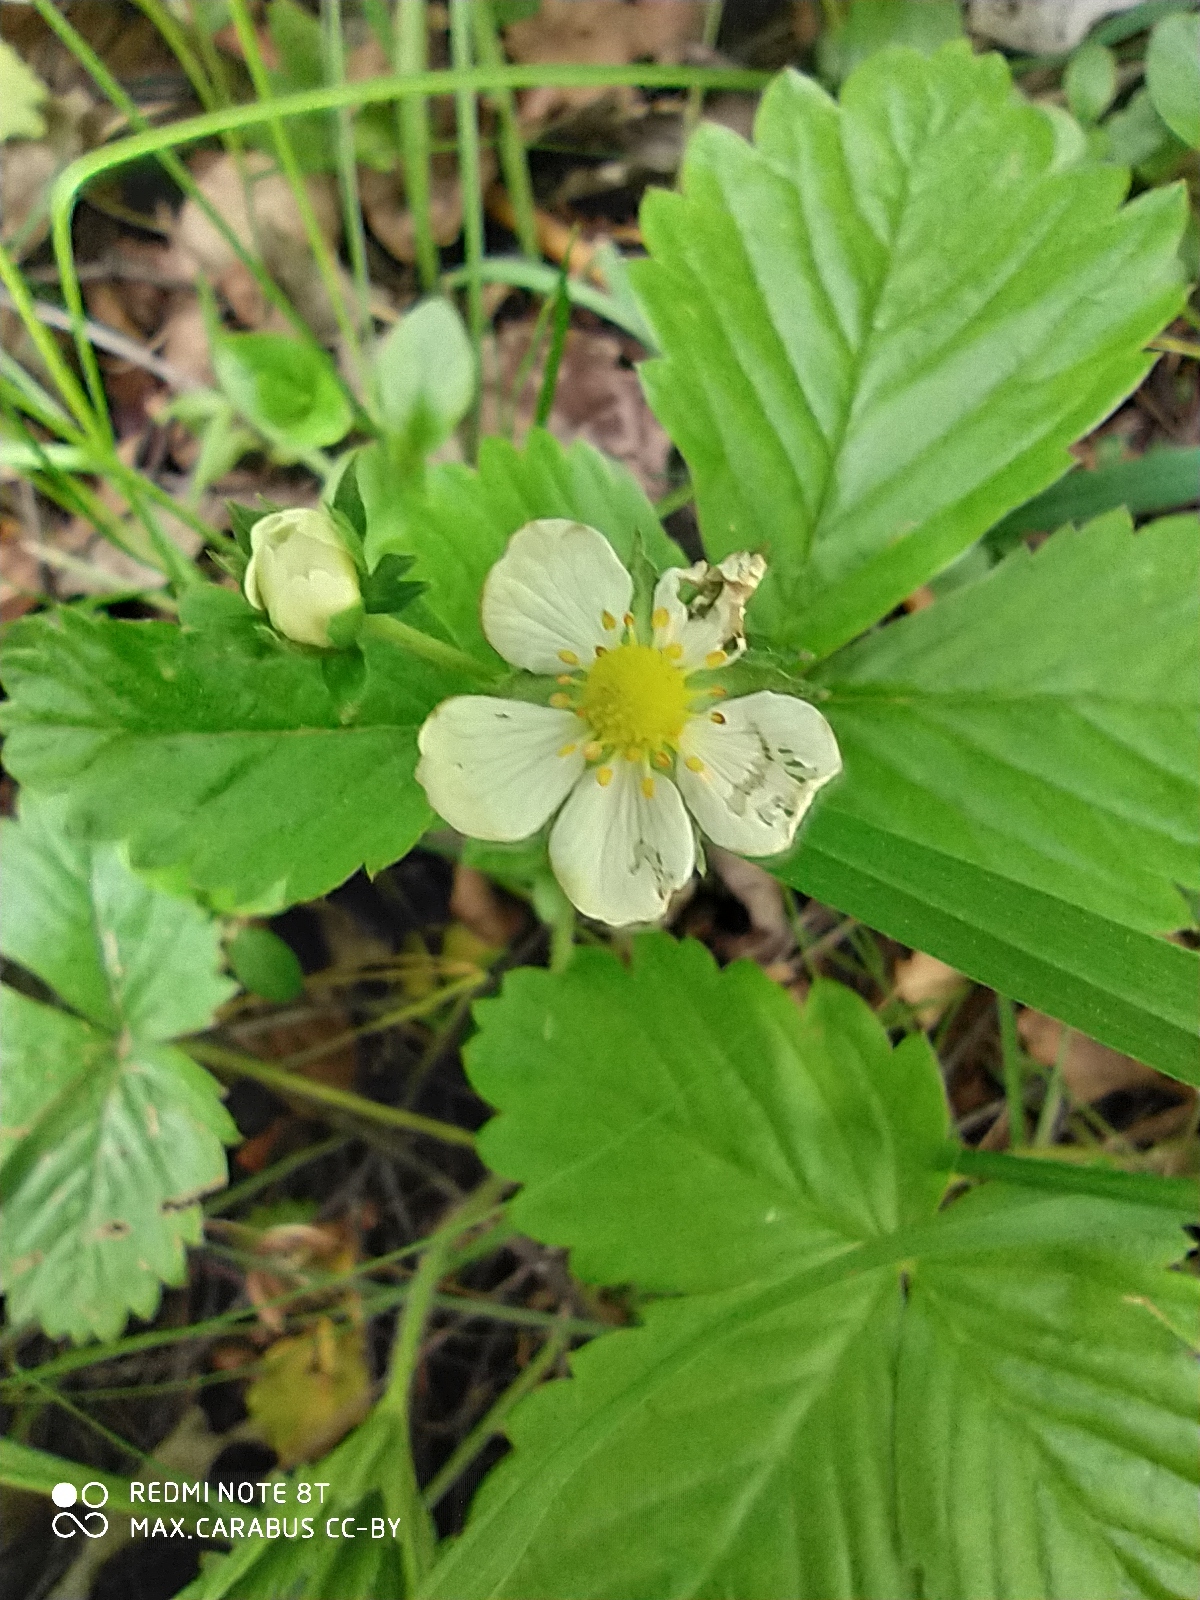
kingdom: Plantae
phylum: Tracheophyta
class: Magnoliopsida
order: Rosales
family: Rosaceae
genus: Fragaria
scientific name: Fragaria vesca
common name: Wild strawberry
